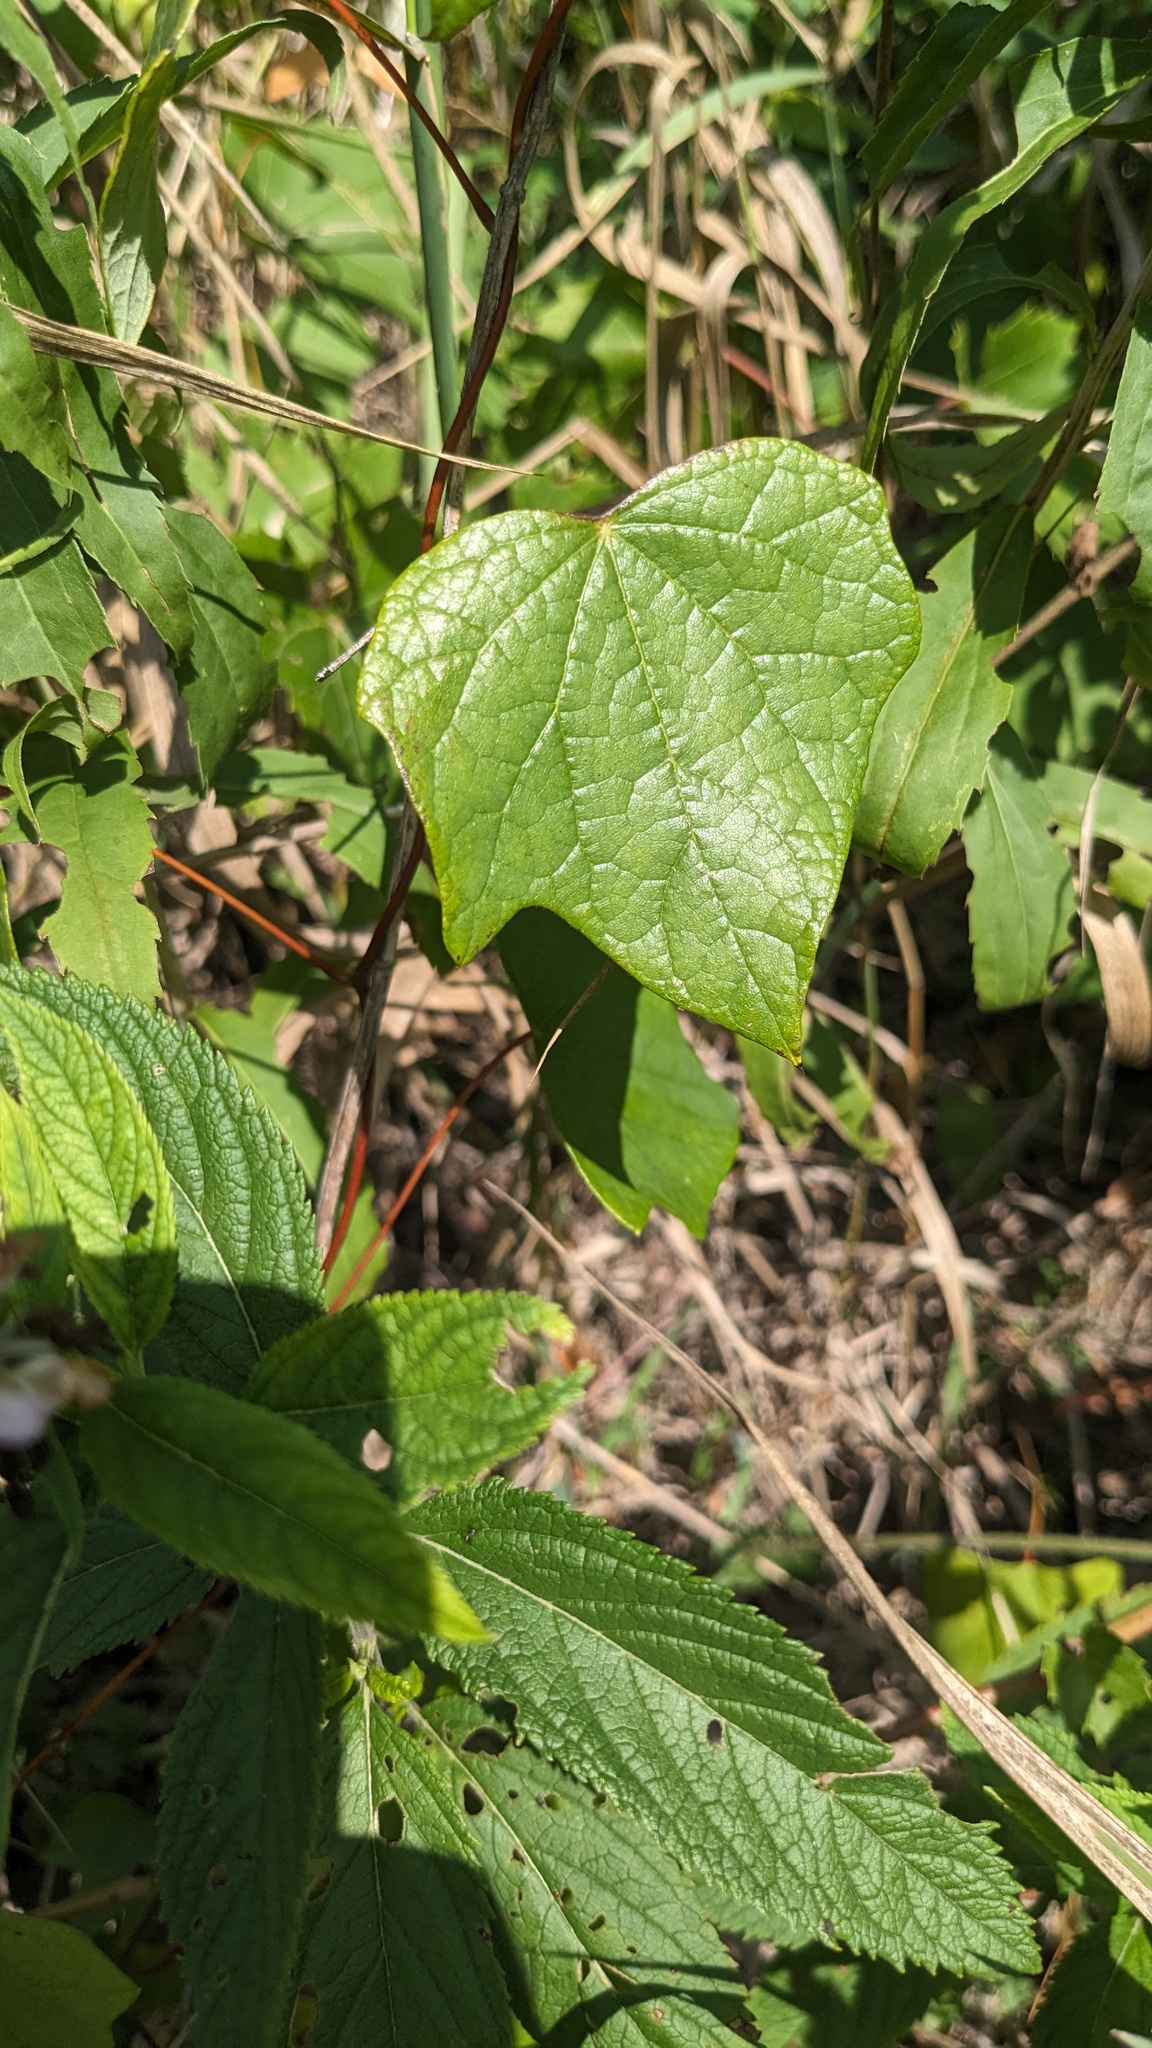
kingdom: Plantae
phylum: Tracheophyta
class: Magnoliopsida
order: Ranunculales
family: Menispermaceae
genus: Menispermum
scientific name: Menispermum canadense
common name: Moonseed
